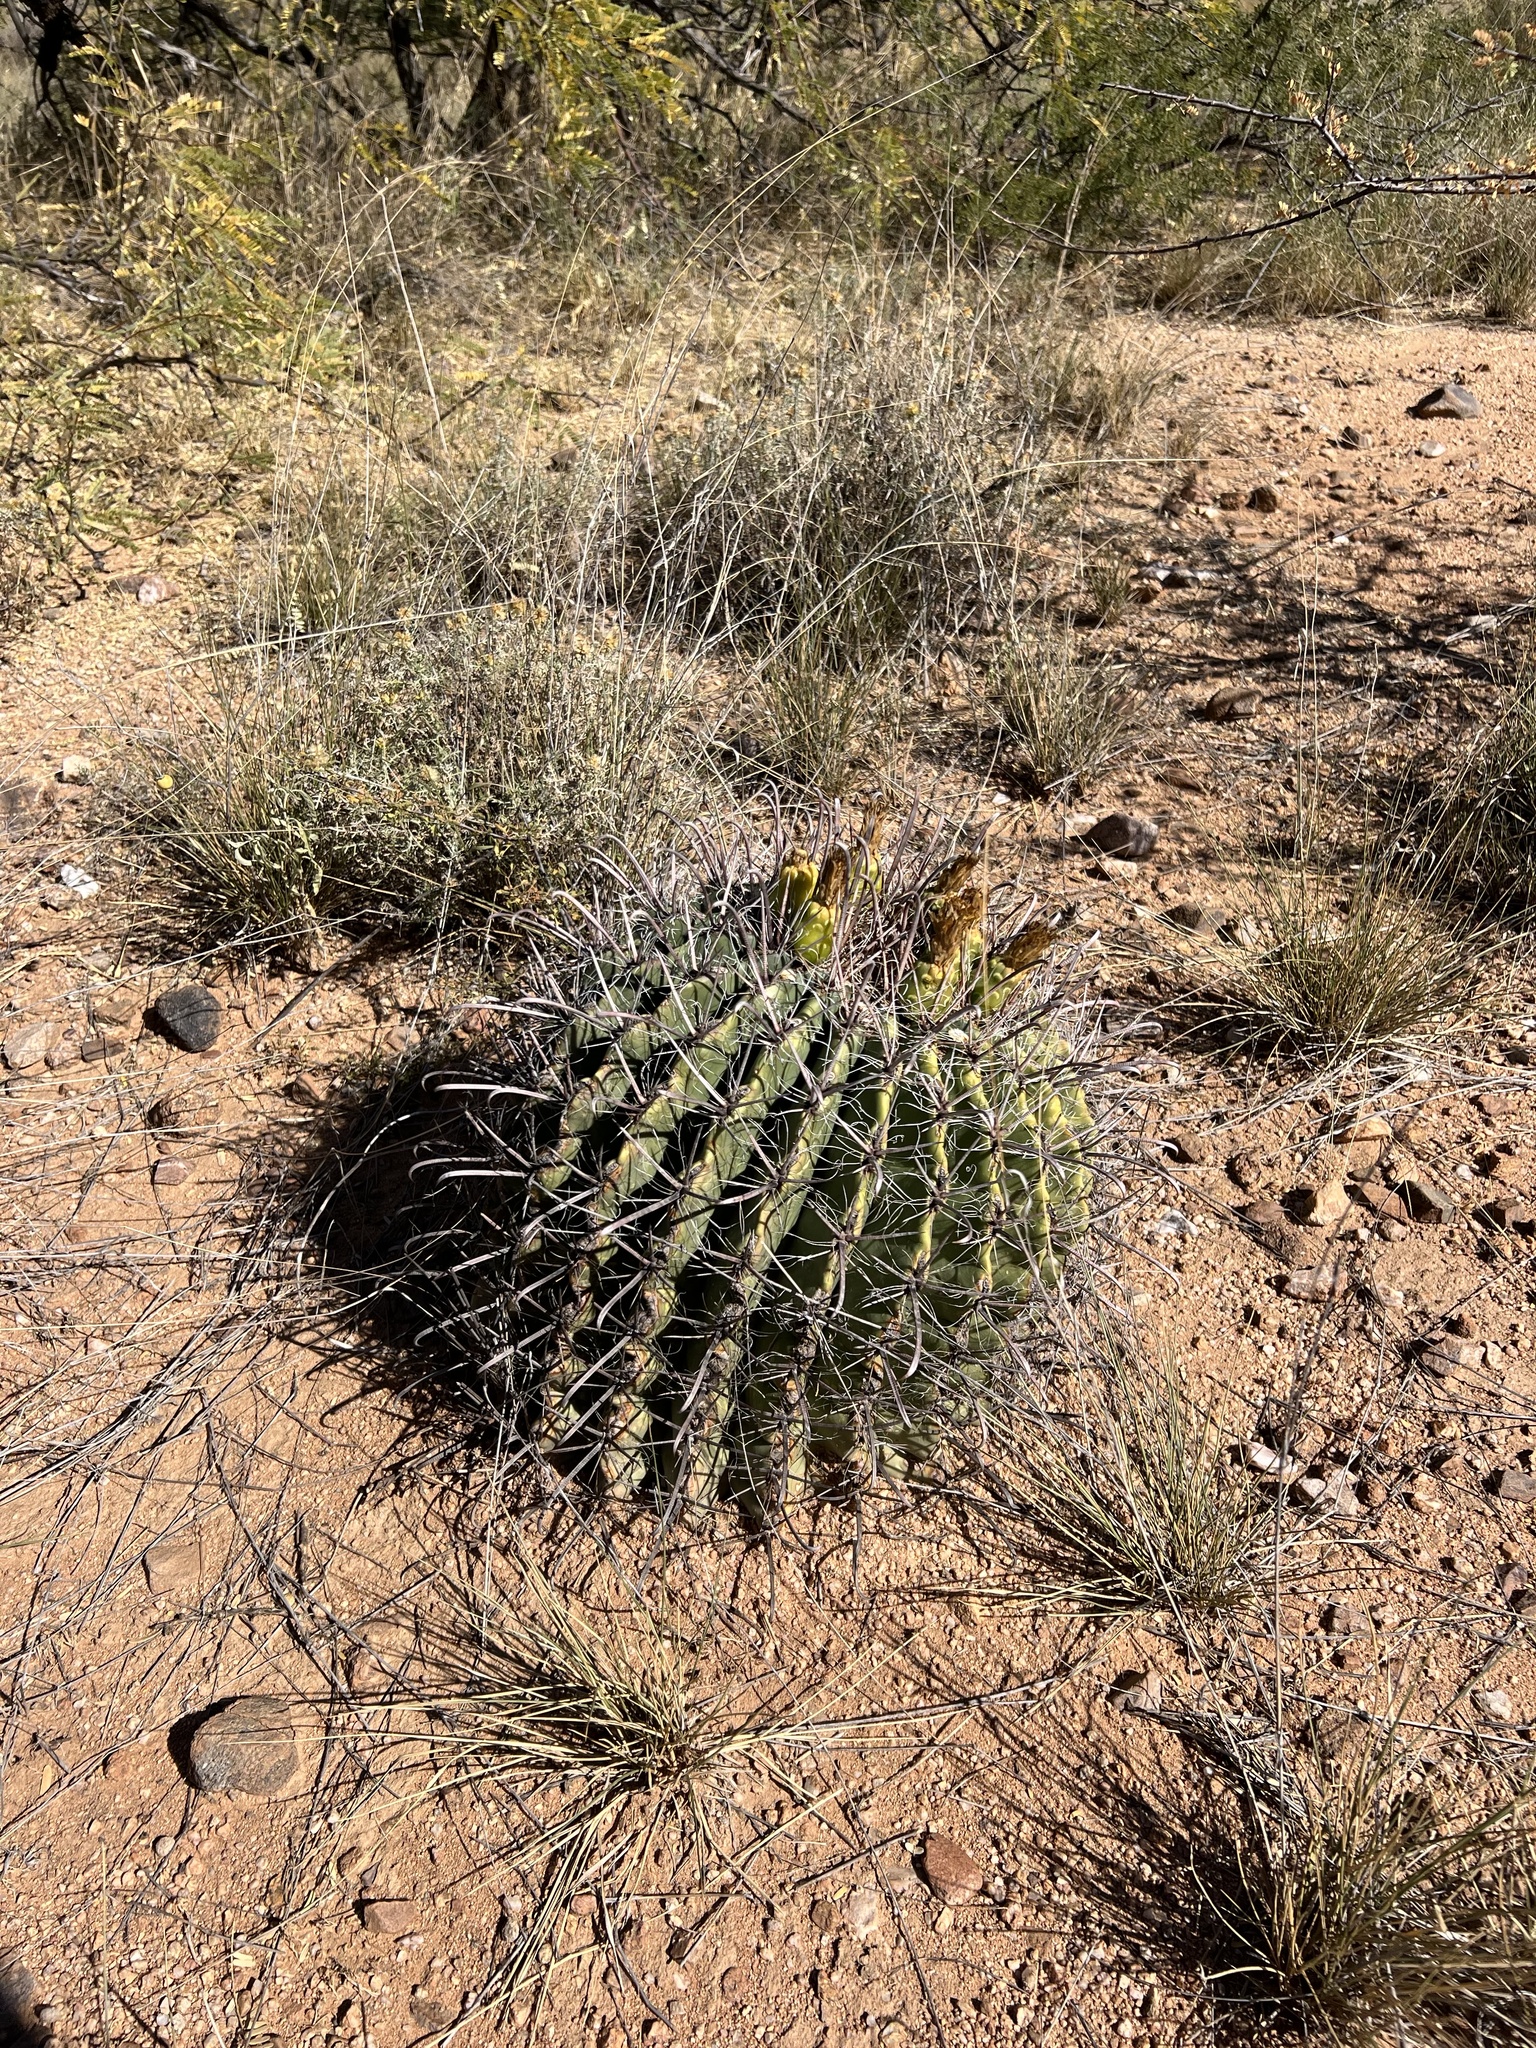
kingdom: Plantae
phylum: Tracheophyta
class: Magnoliopsida
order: Caryophyllales
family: Cactaceae
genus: Ferocactus
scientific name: Ferocactus wislizeni
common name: Candy barrel cactus
